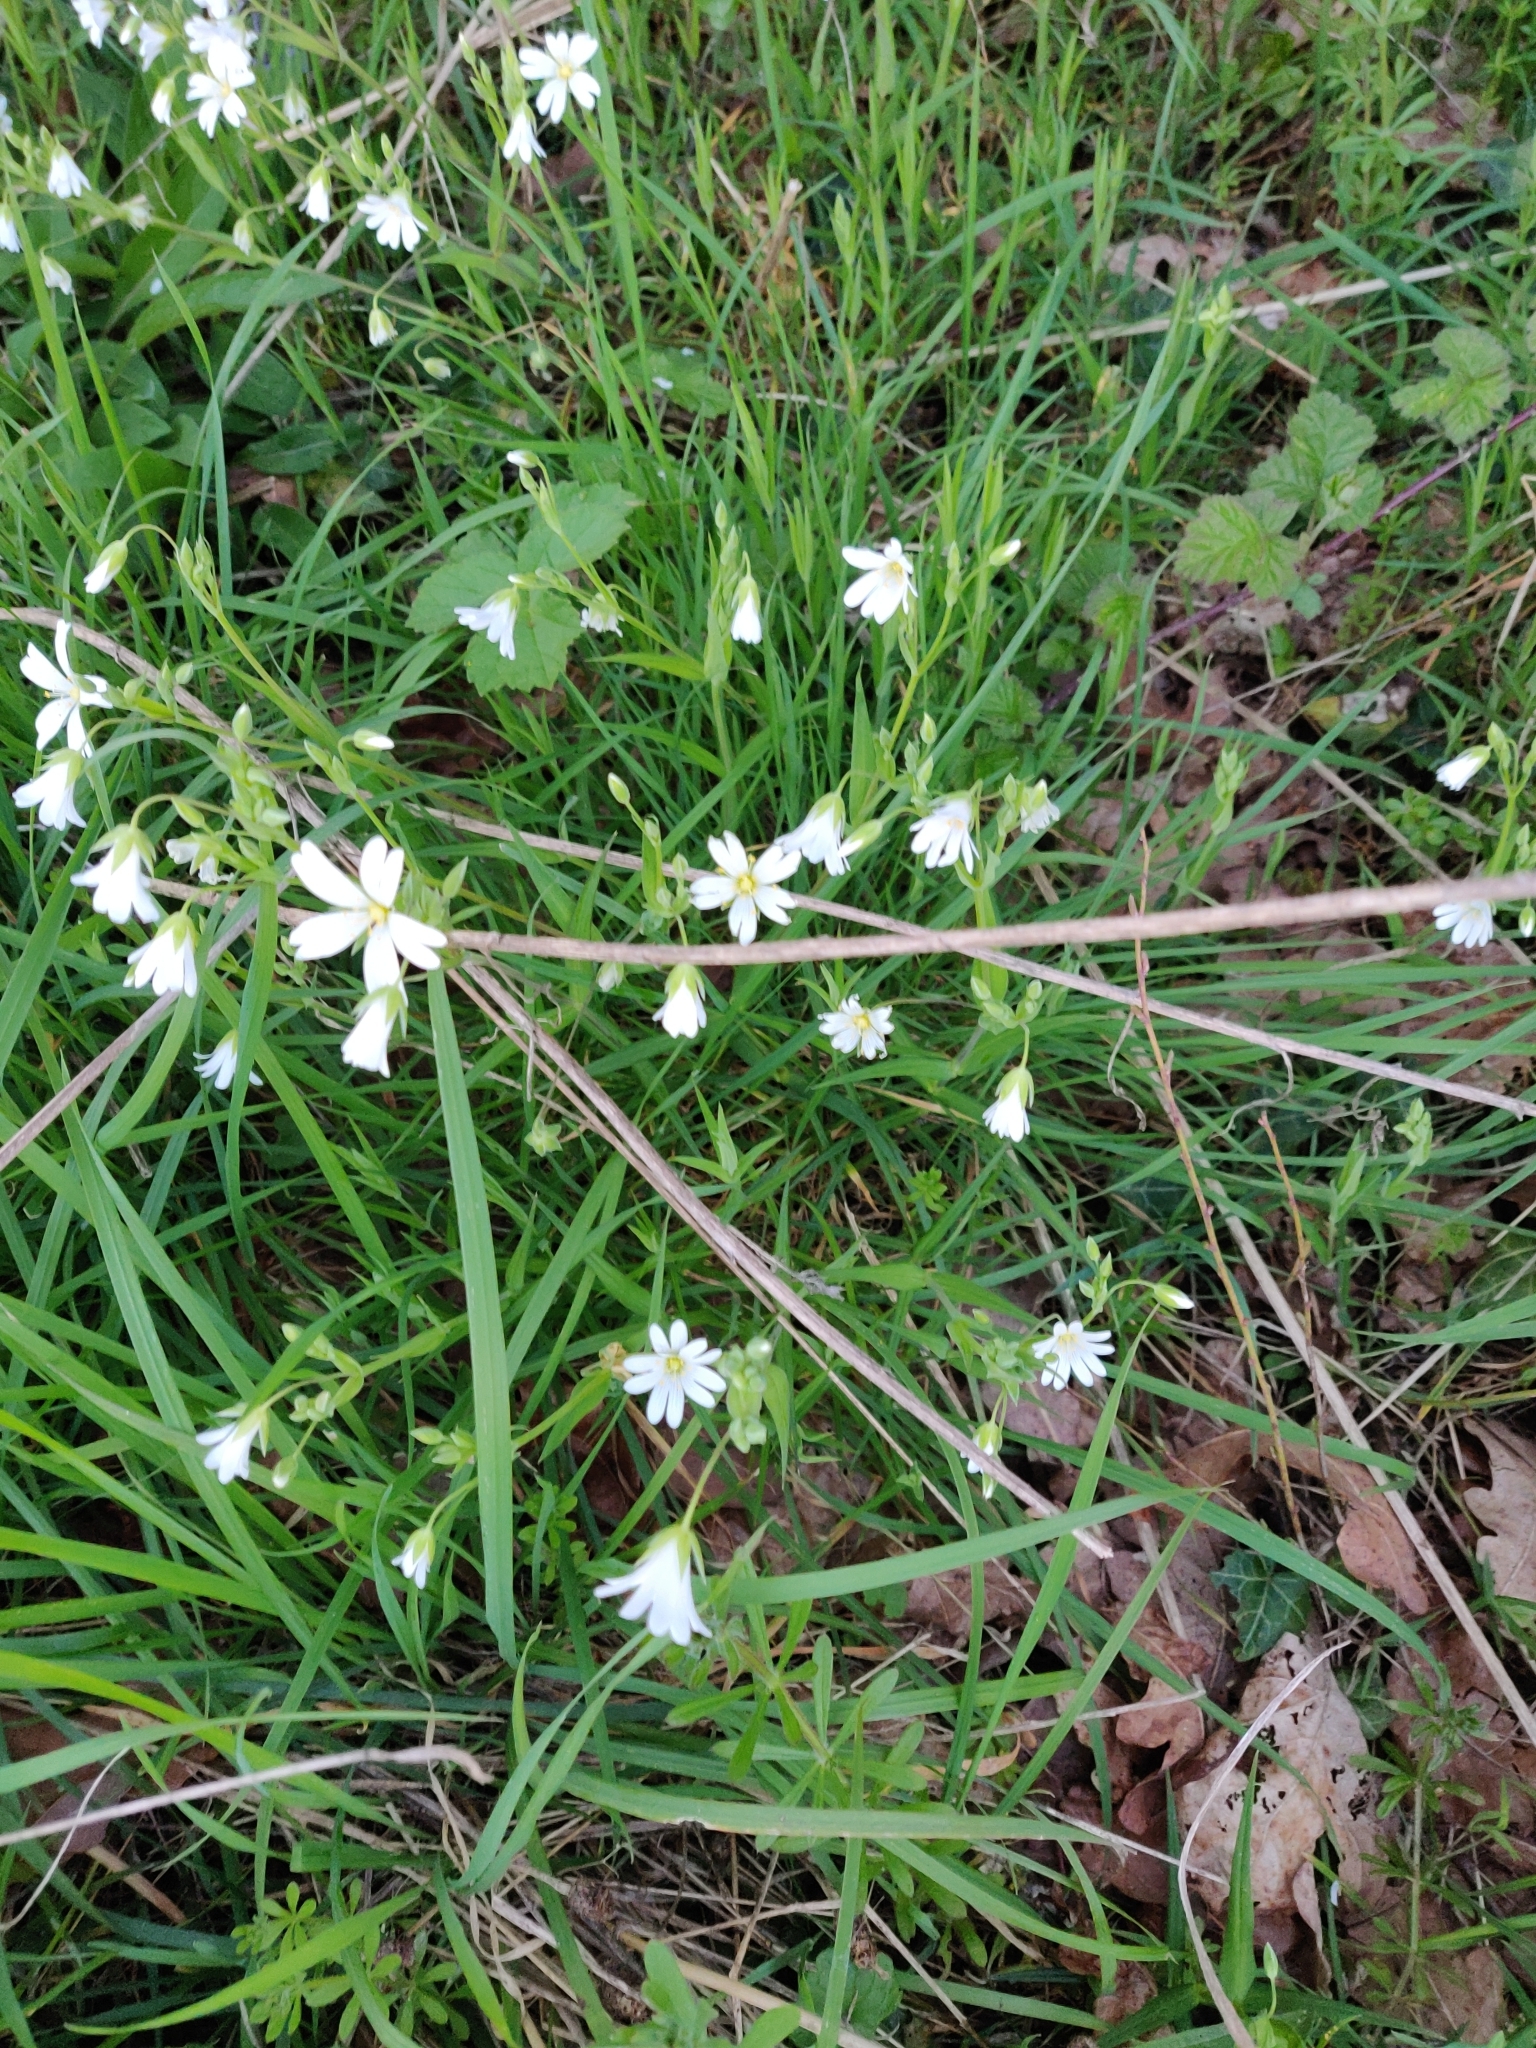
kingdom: Plantae
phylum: Tracheophyta
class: Magnoliopsida
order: Caryophyllales
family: Caryophyllaceae
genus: Rabelera
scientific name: Rabelera holostea
